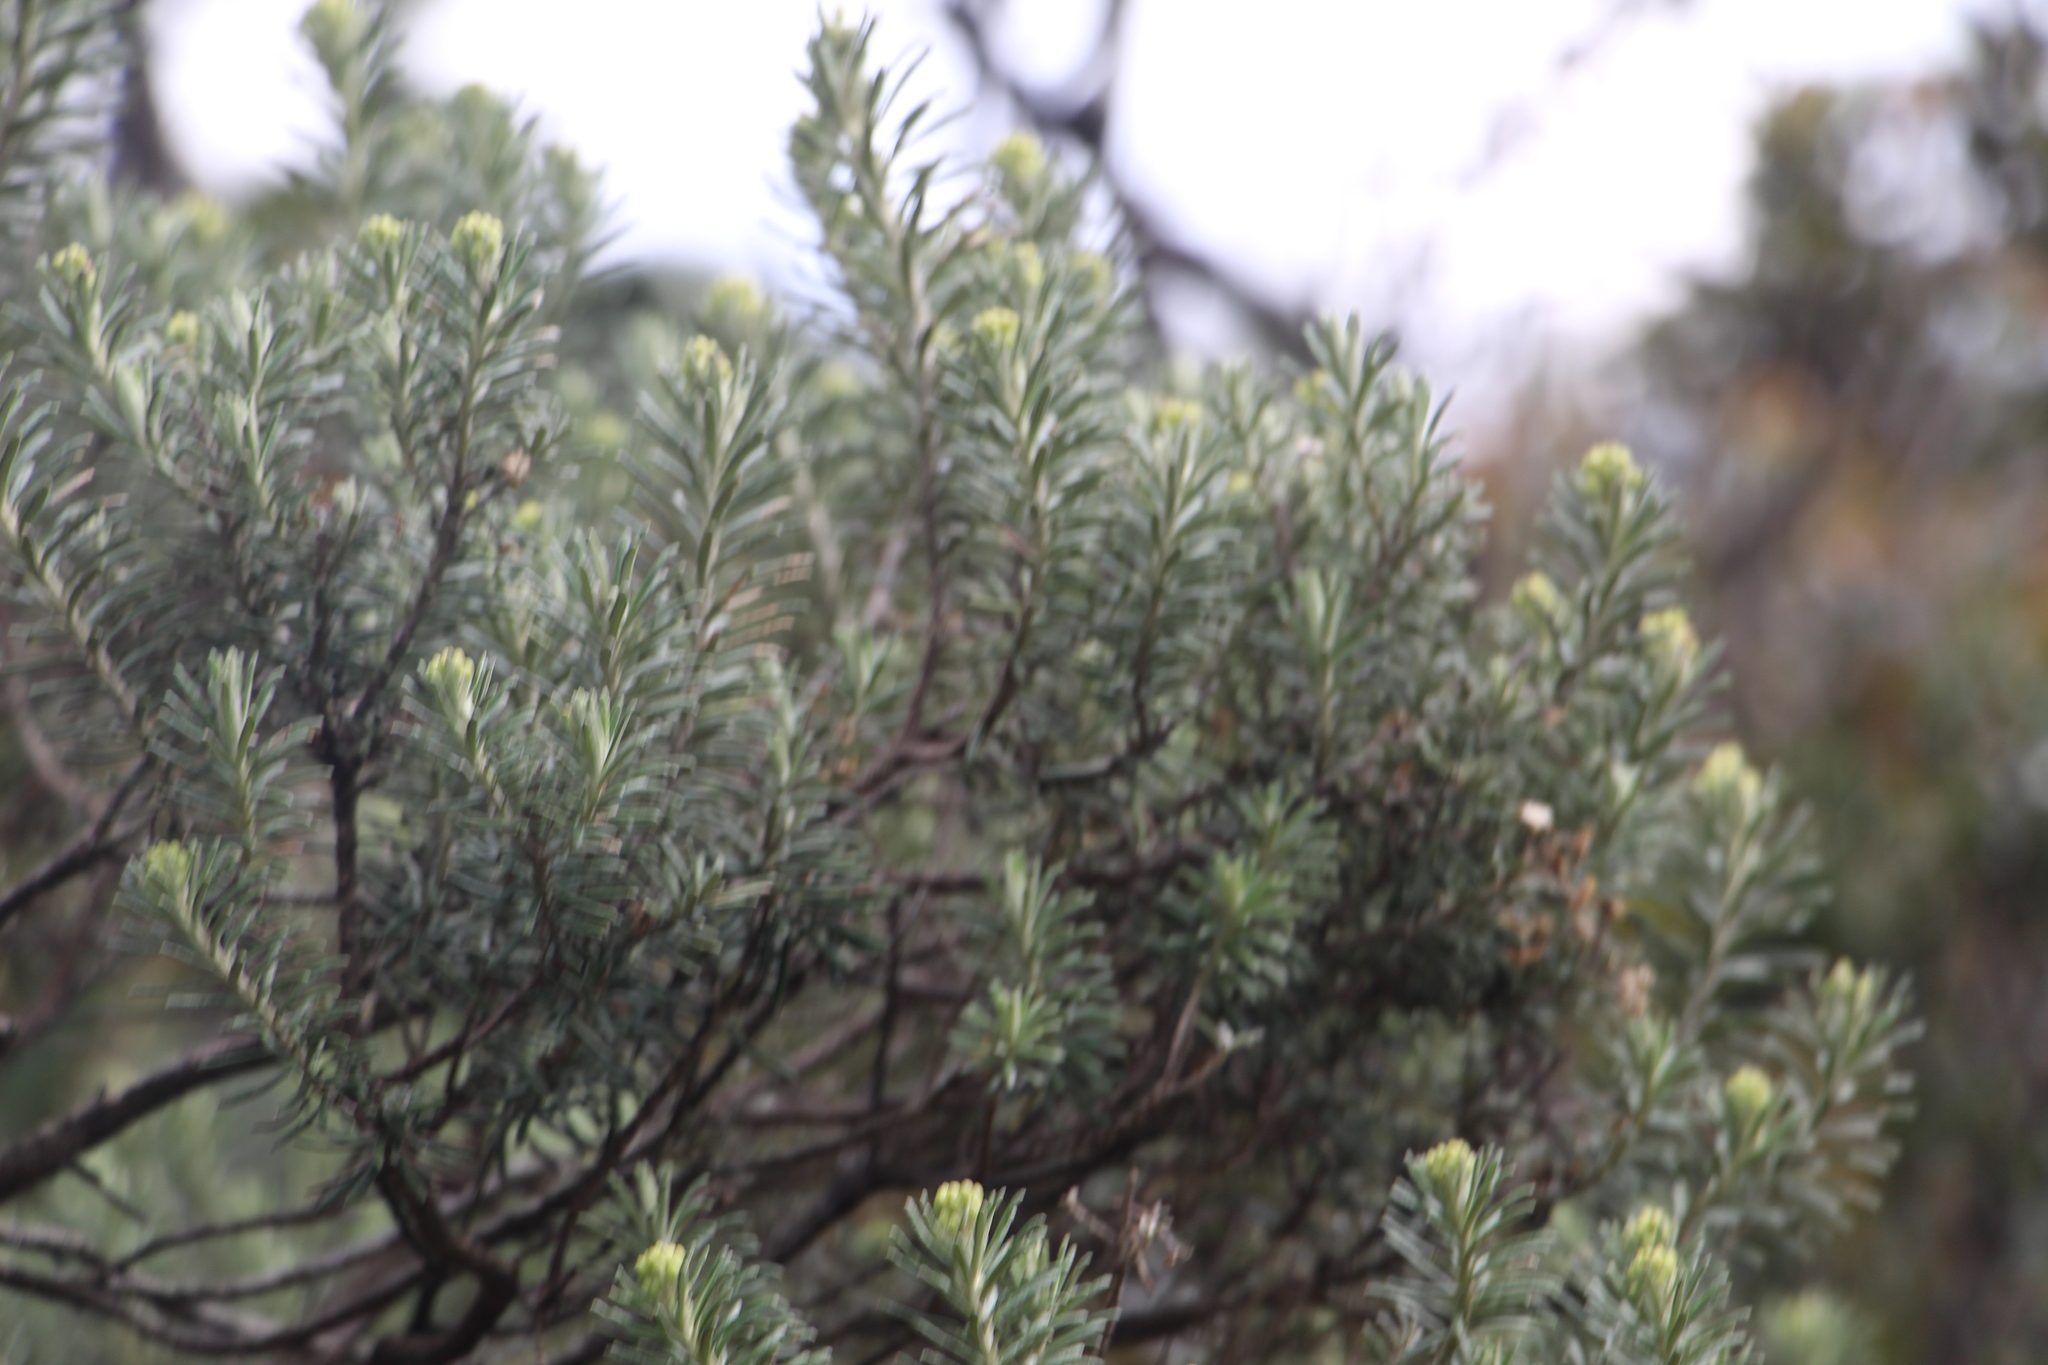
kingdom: Plantae
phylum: Tracheophyta
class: Magnoliopsida
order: Asterales
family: Asteraceae
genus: Linochilus
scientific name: Linochilus rosmarinifolius
